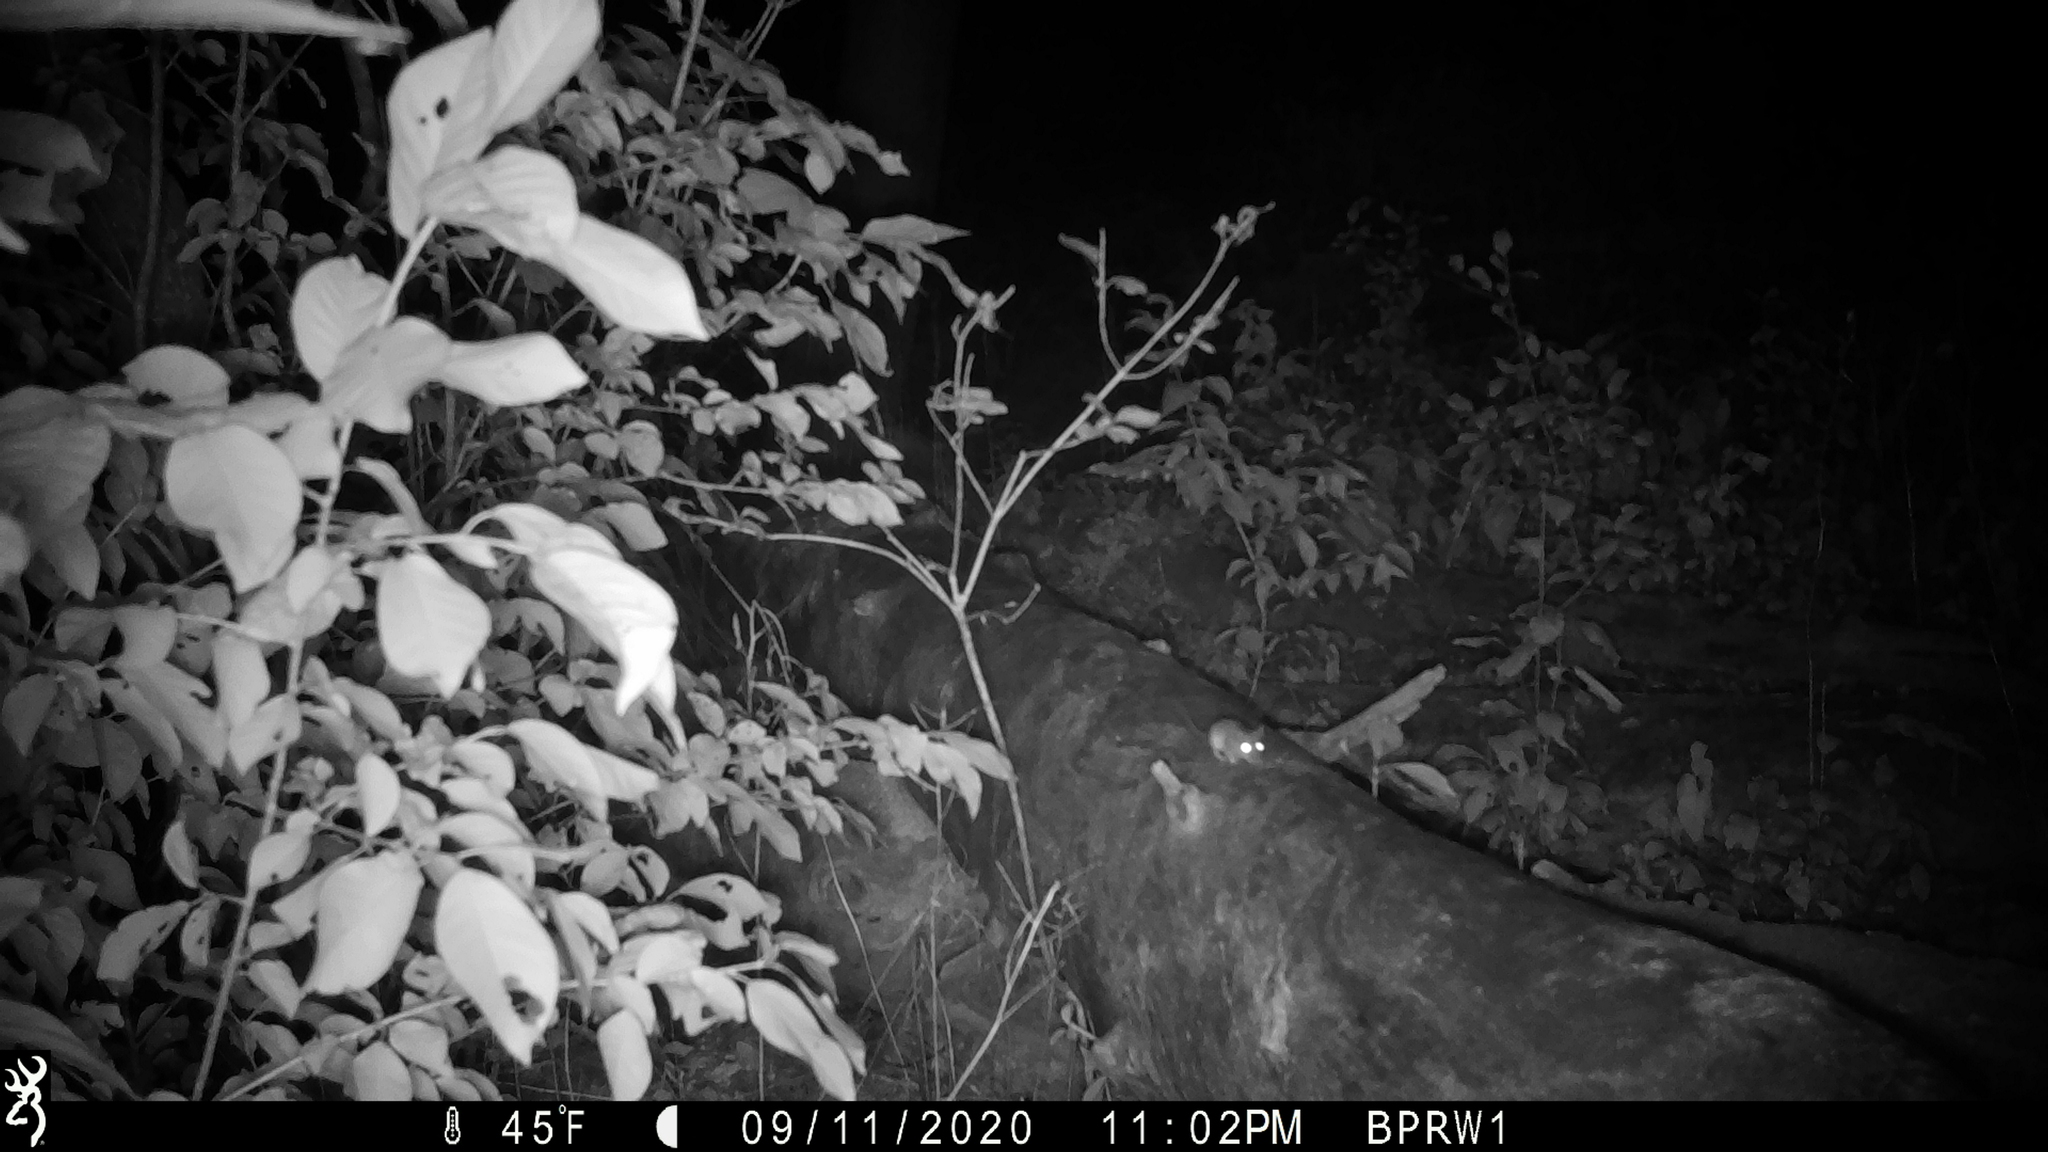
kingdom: Animalia
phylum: Chordata
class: Mammalia
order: Rodentia
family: Cricetidae
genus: Peromyscus
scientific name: Peromyscus
